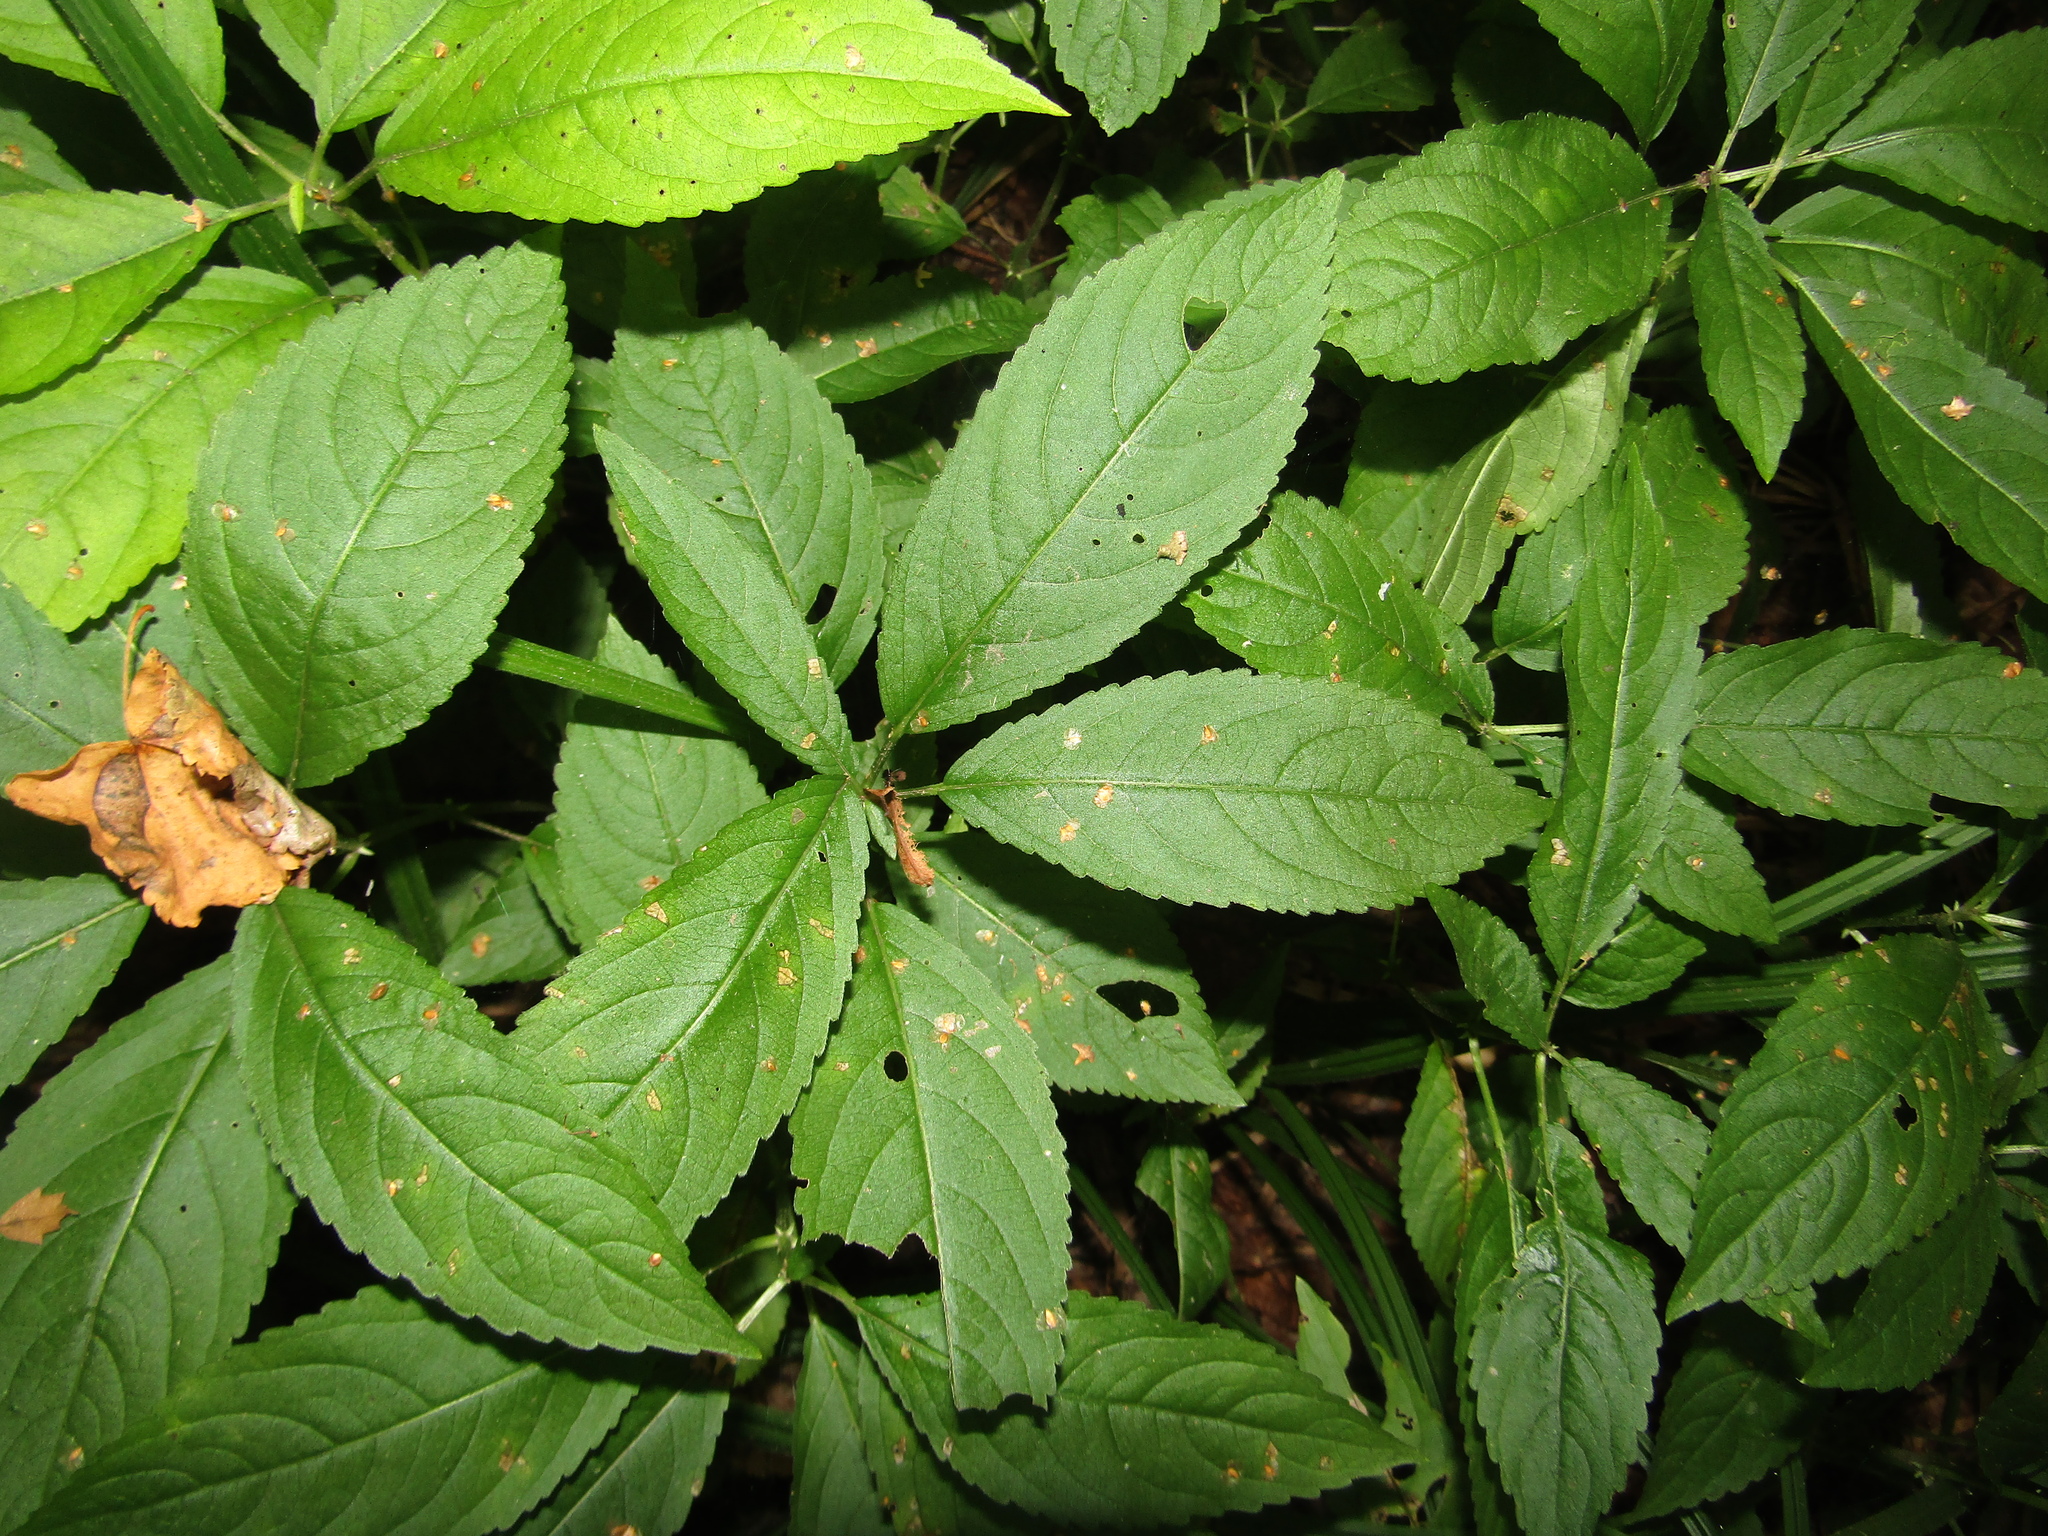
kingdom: Plantae
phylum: Tracheophyta
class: Magnoliopsida
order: Malpighiales
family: Euphorbiaceae
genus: Mercurialis
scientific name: Mercurialis perennis
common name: Dog mercury
